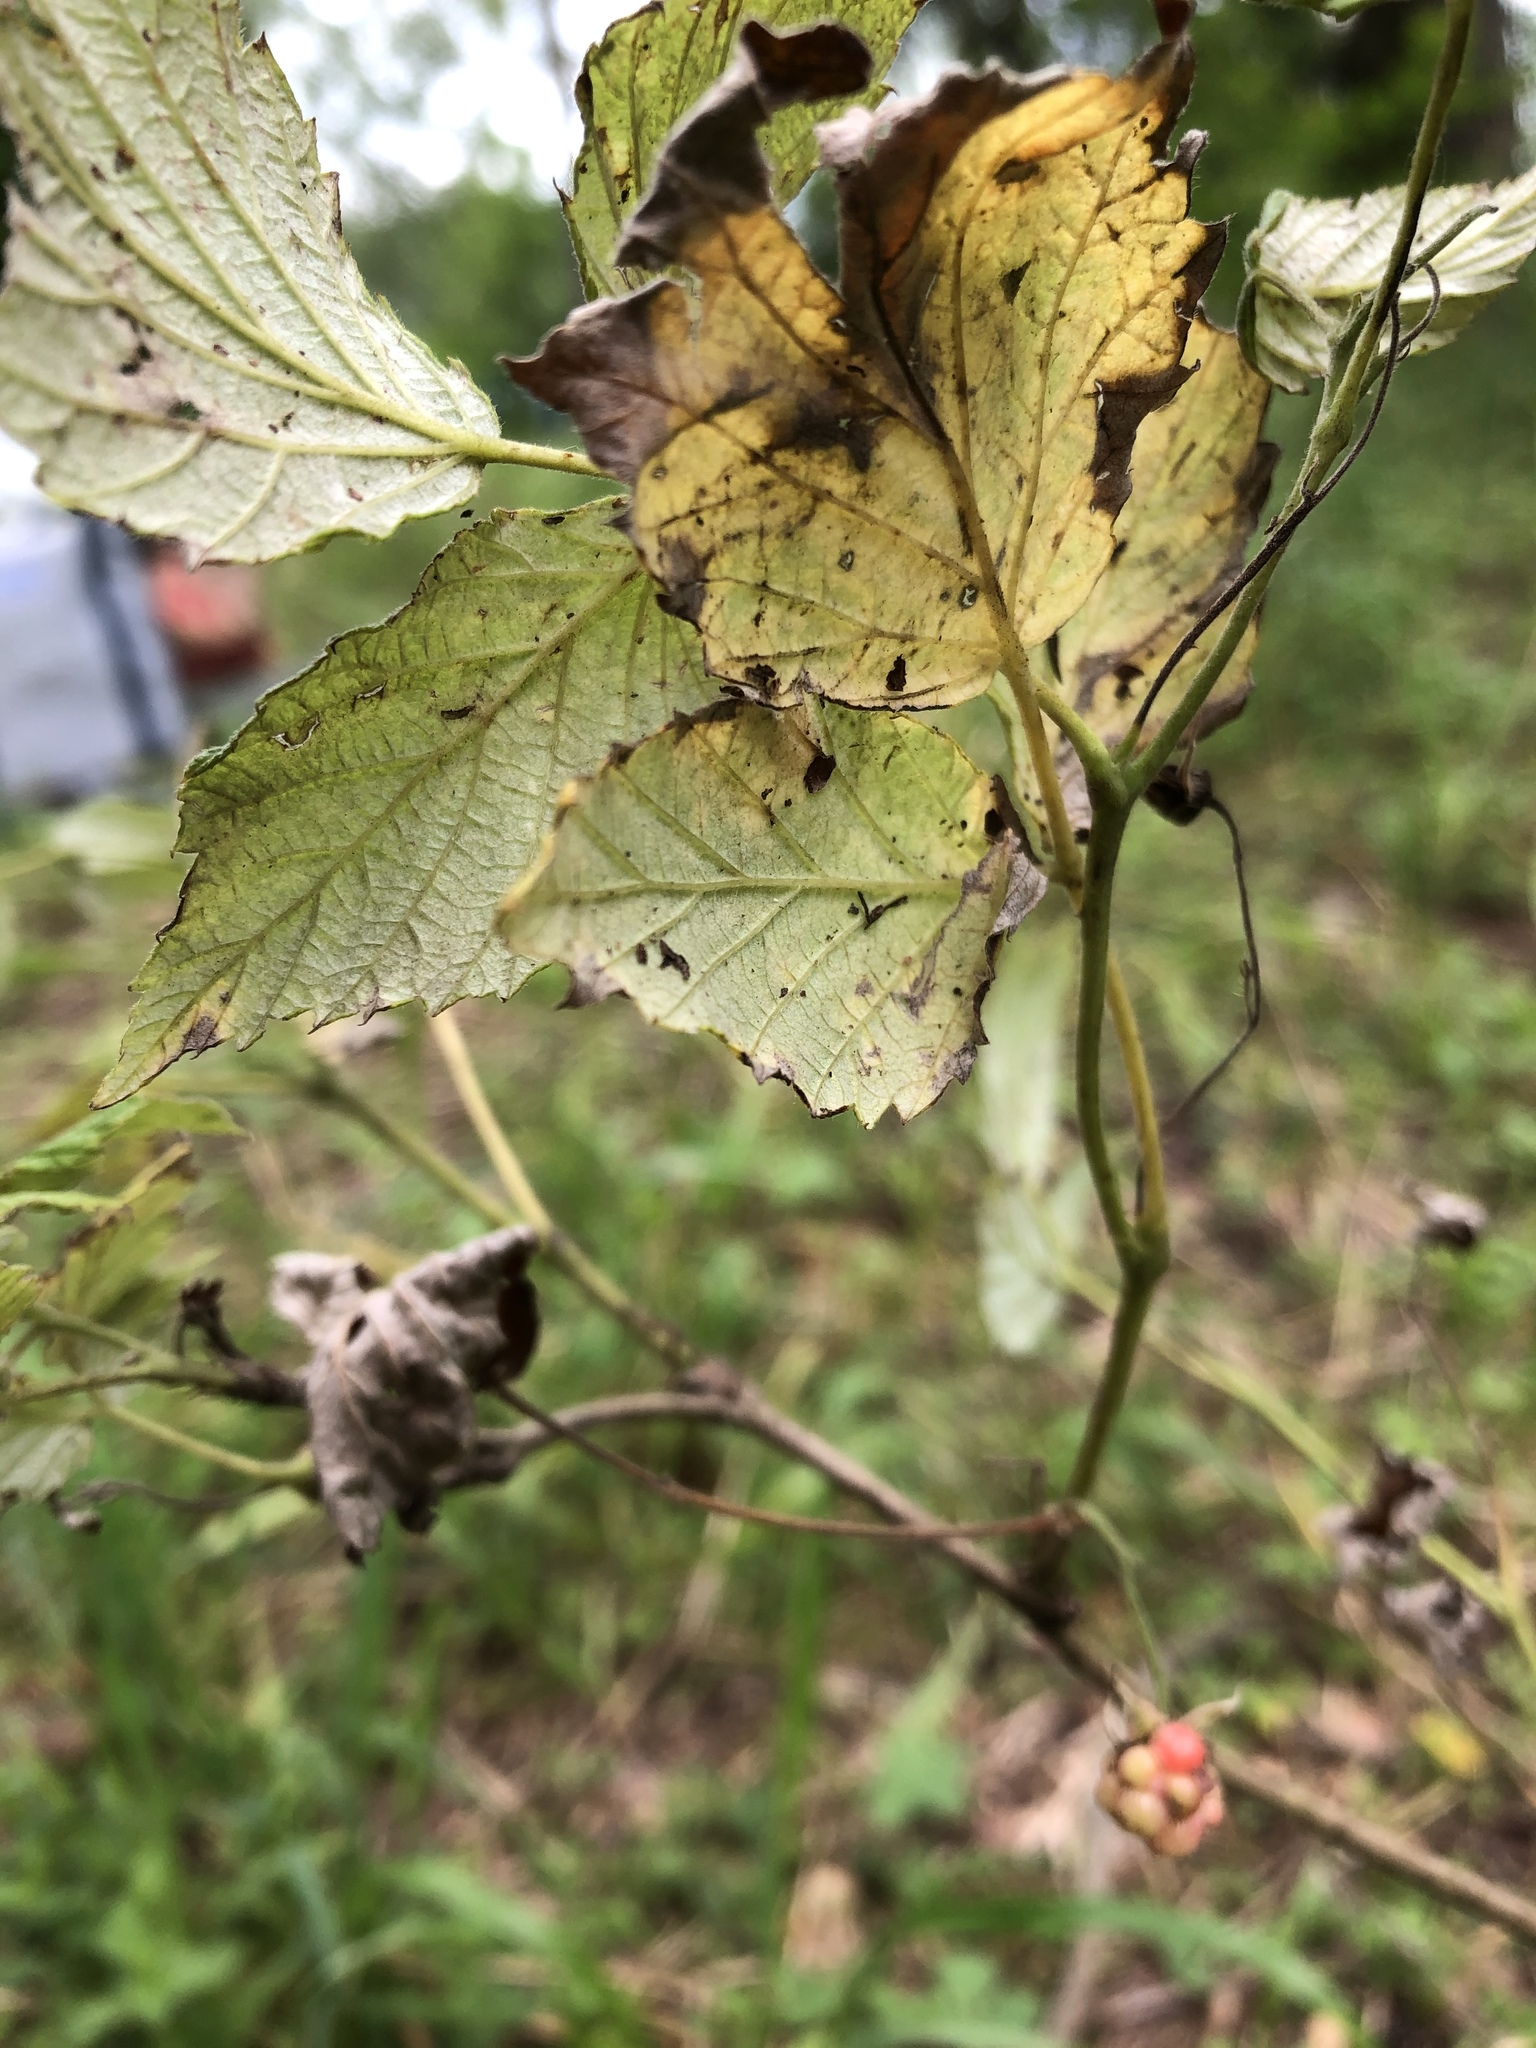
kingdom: Plantae
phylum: Tracheophyta
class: Magnoliopsida
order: Rosales
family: Rosaceae
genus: Rubus
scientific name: Rubus idaeus
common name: Raspberry
